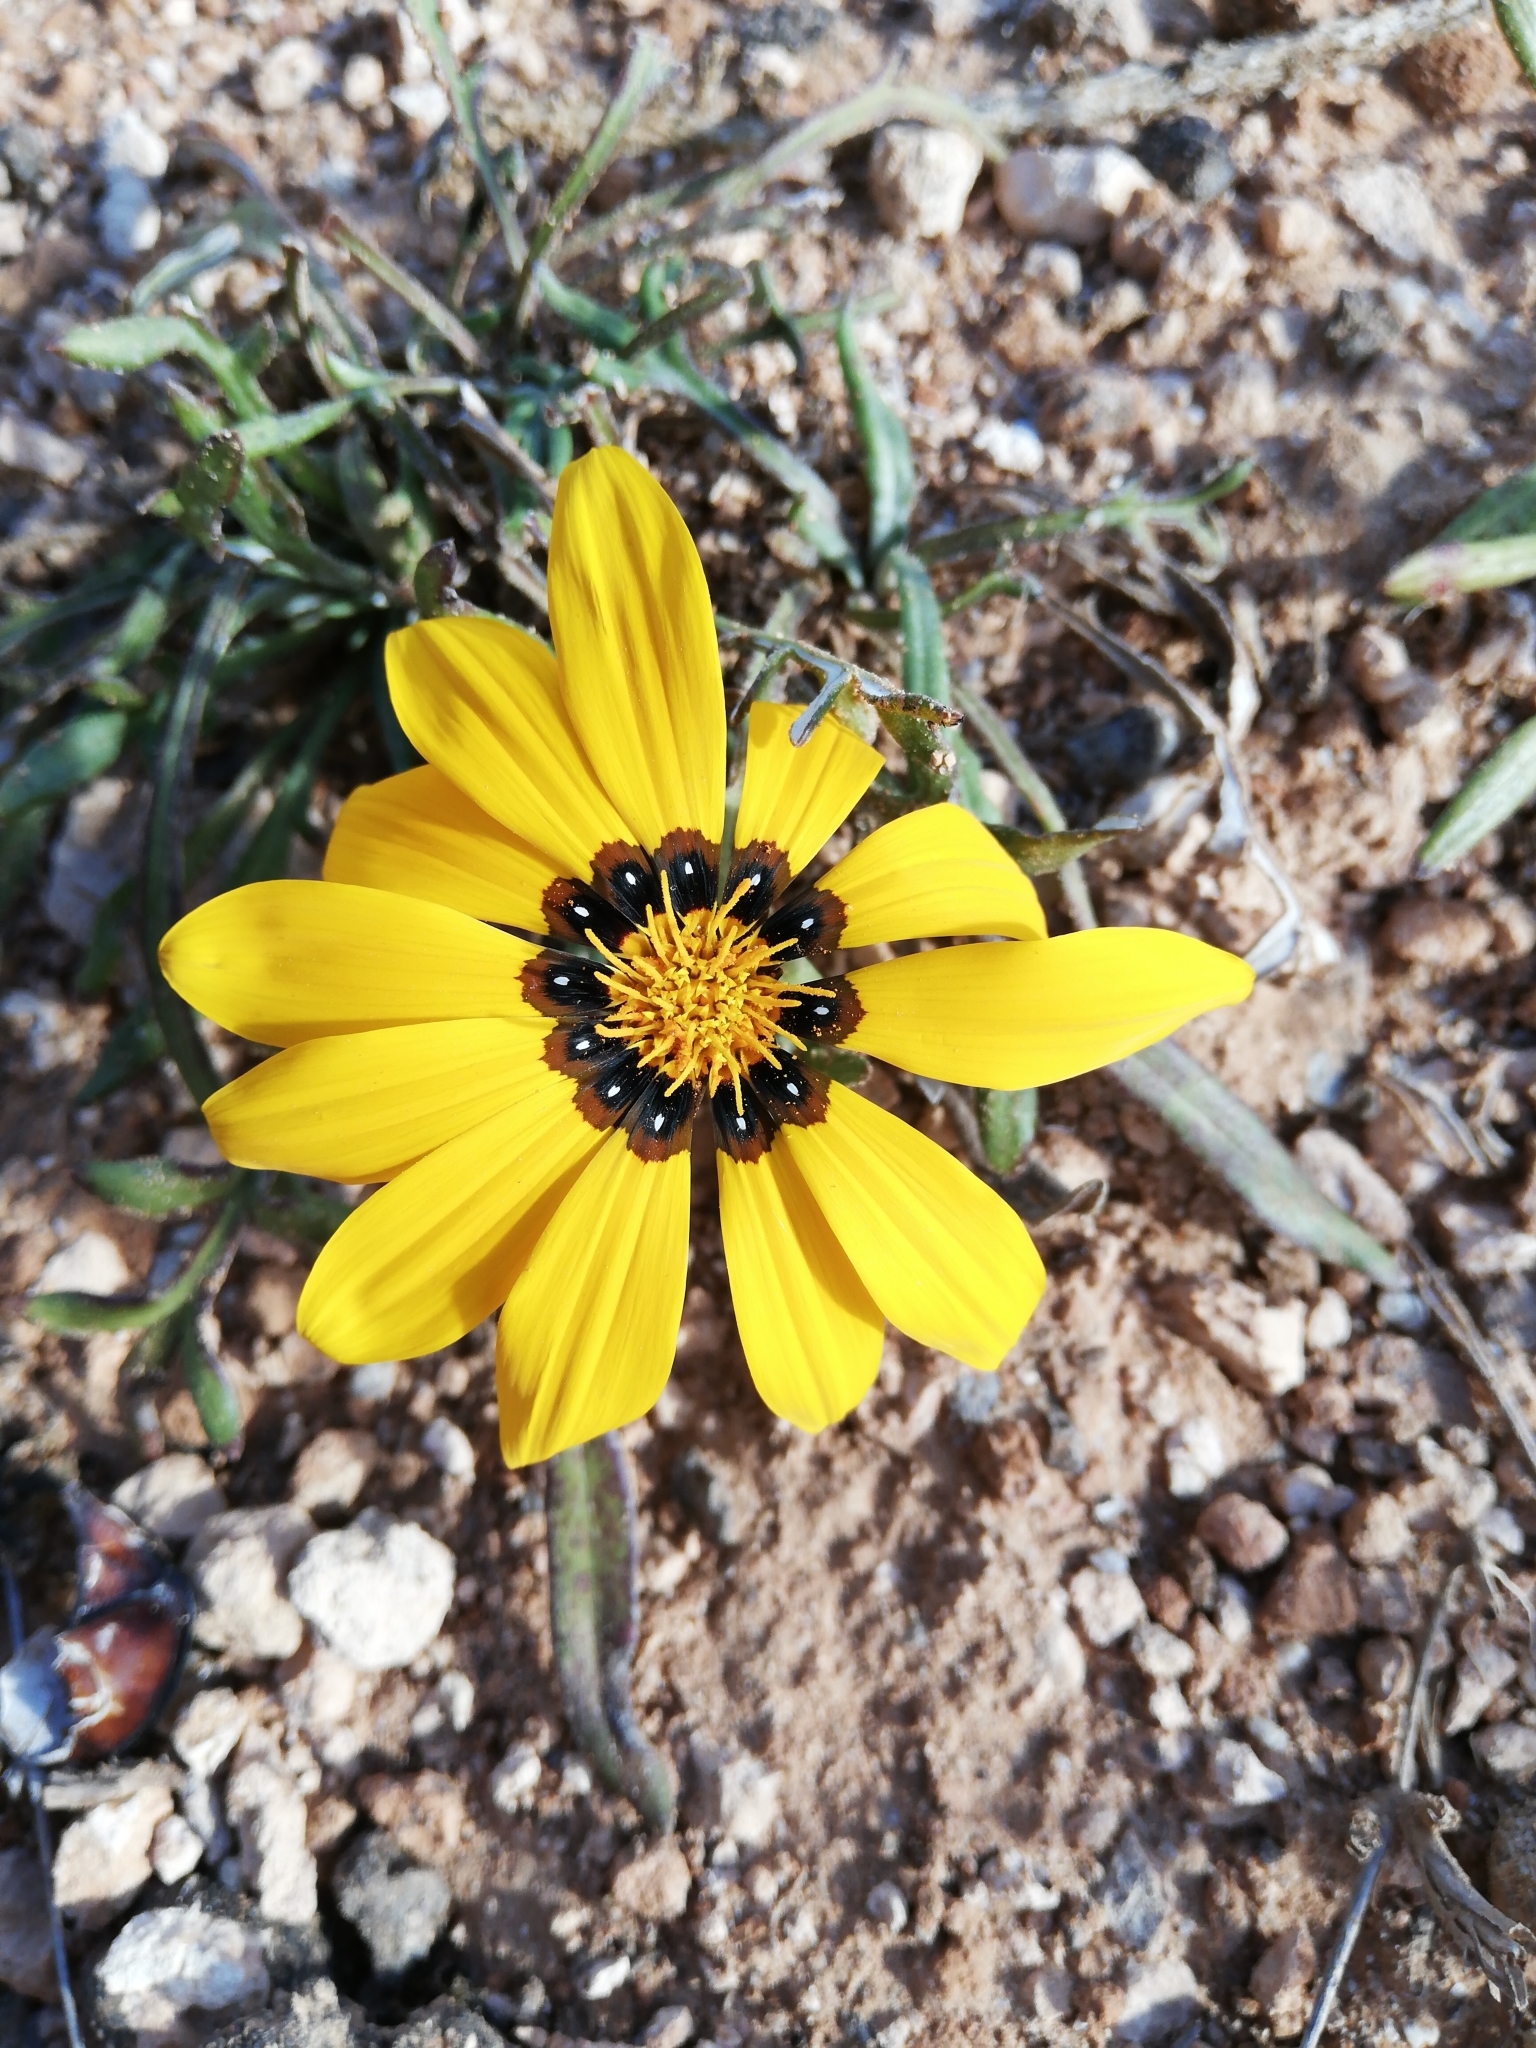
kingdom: Plantae
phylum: Tracheophyta
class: Magnoliopsida
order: Asterales
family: Asteraceae
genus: Gazania
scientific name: Gazania krebsiana
